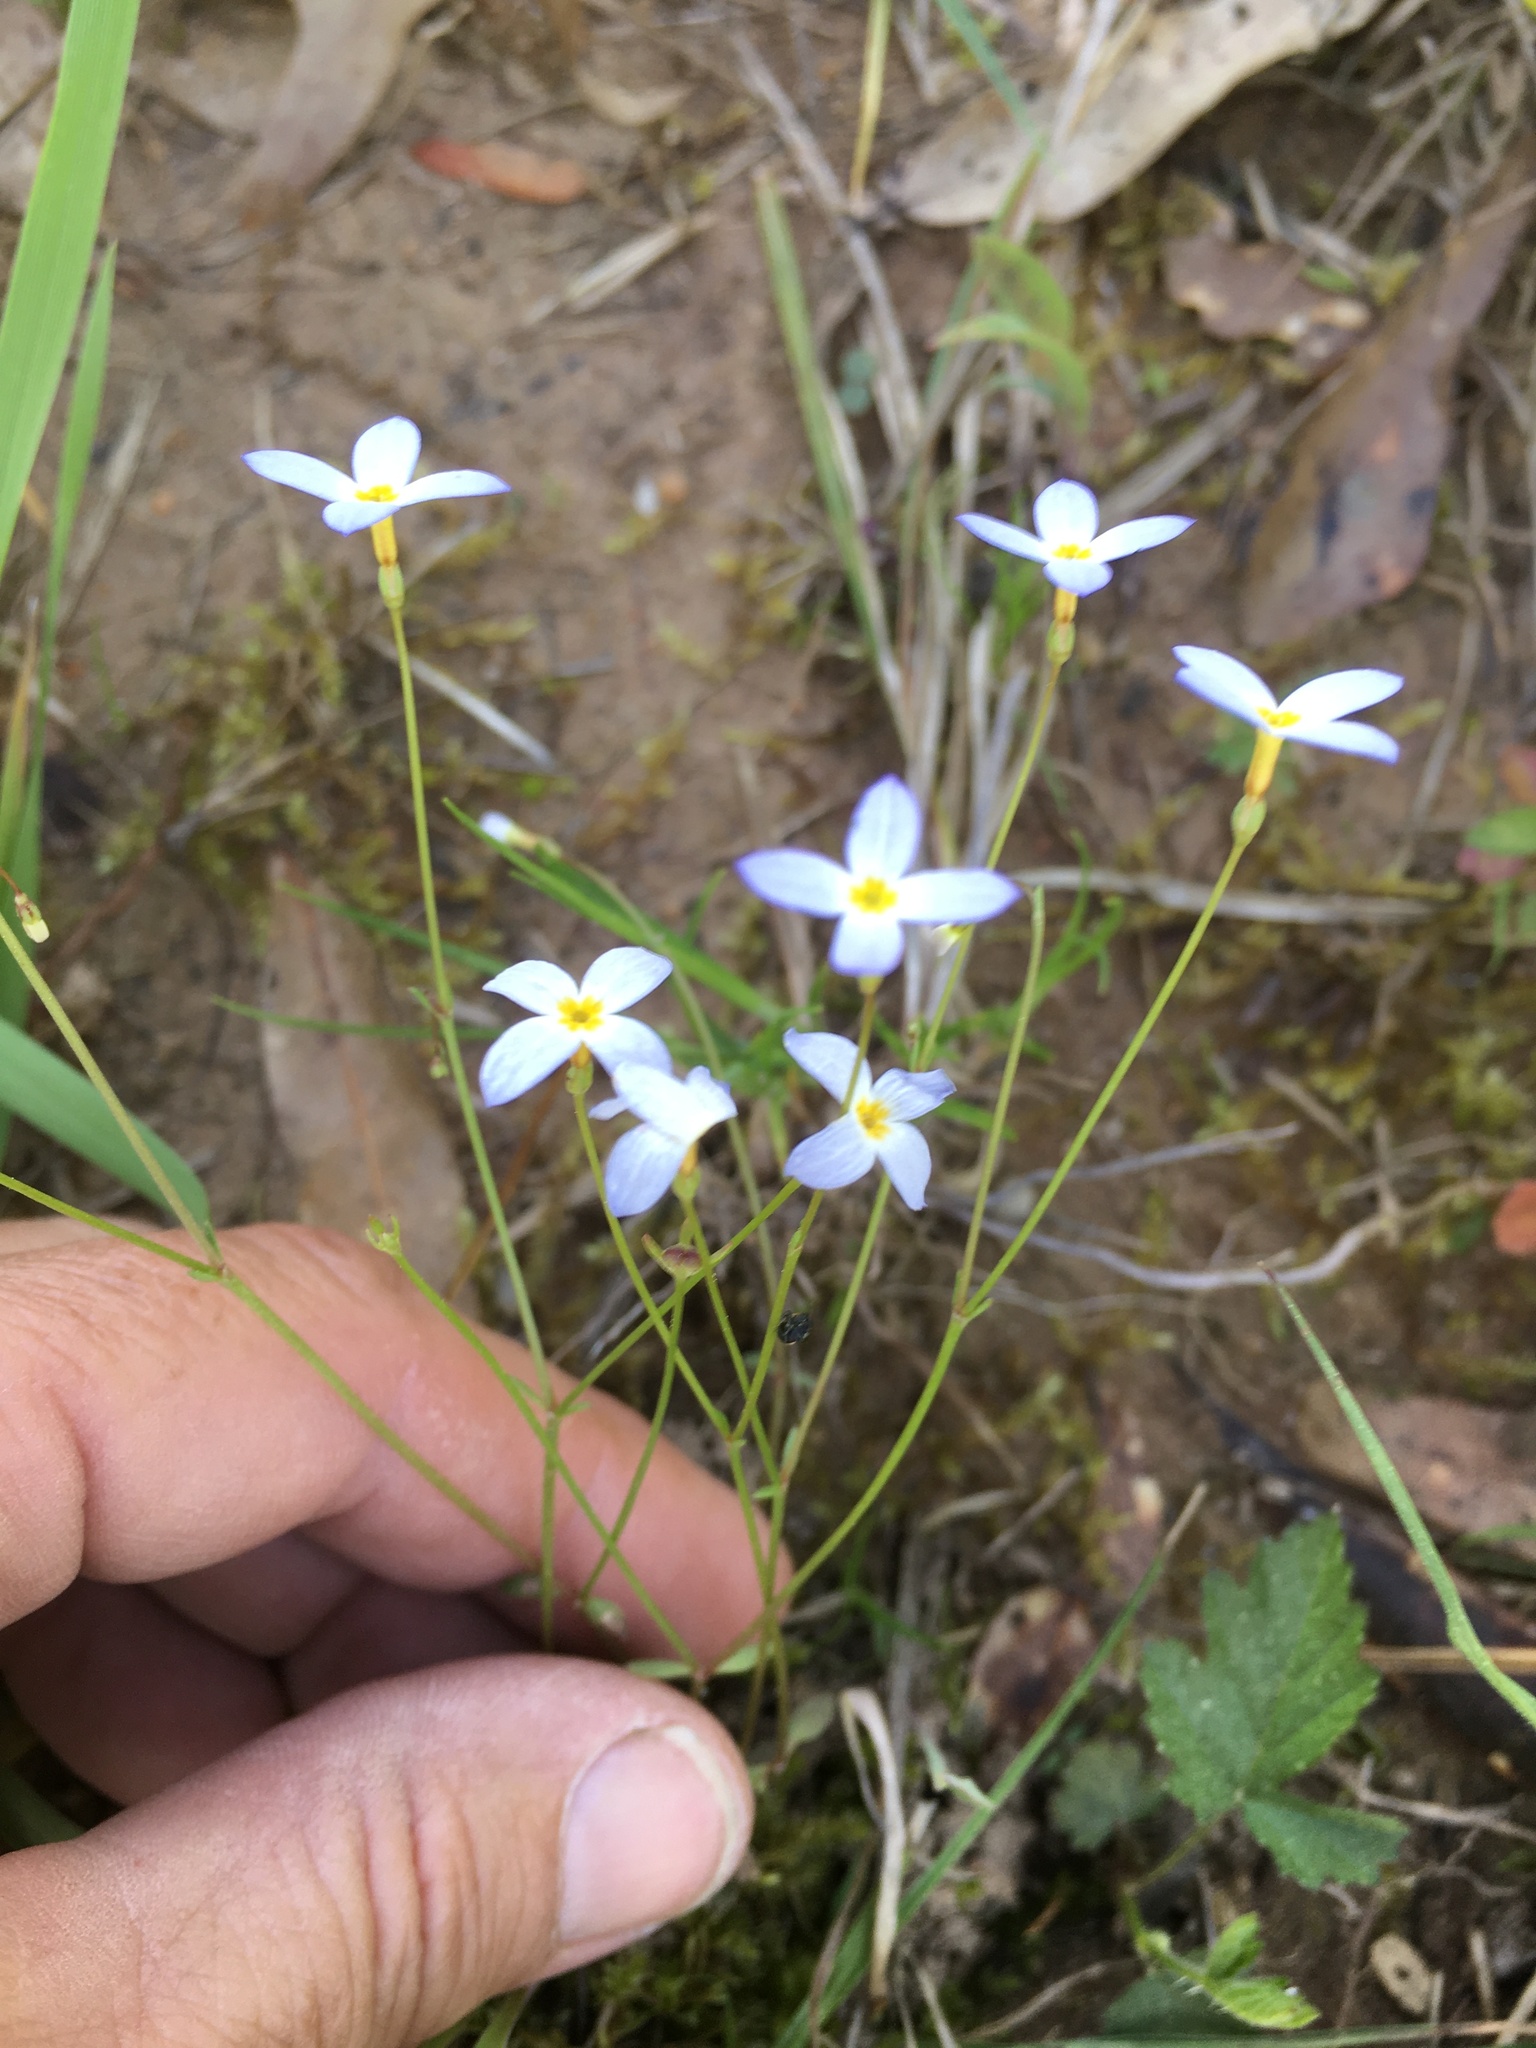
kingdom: Plantae
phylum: Tracheophyta
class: Magnoliopsida
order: Gentianales
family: Rubiaceae
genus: Houstonia
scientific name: Houstonia caerulea
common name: Bluets
